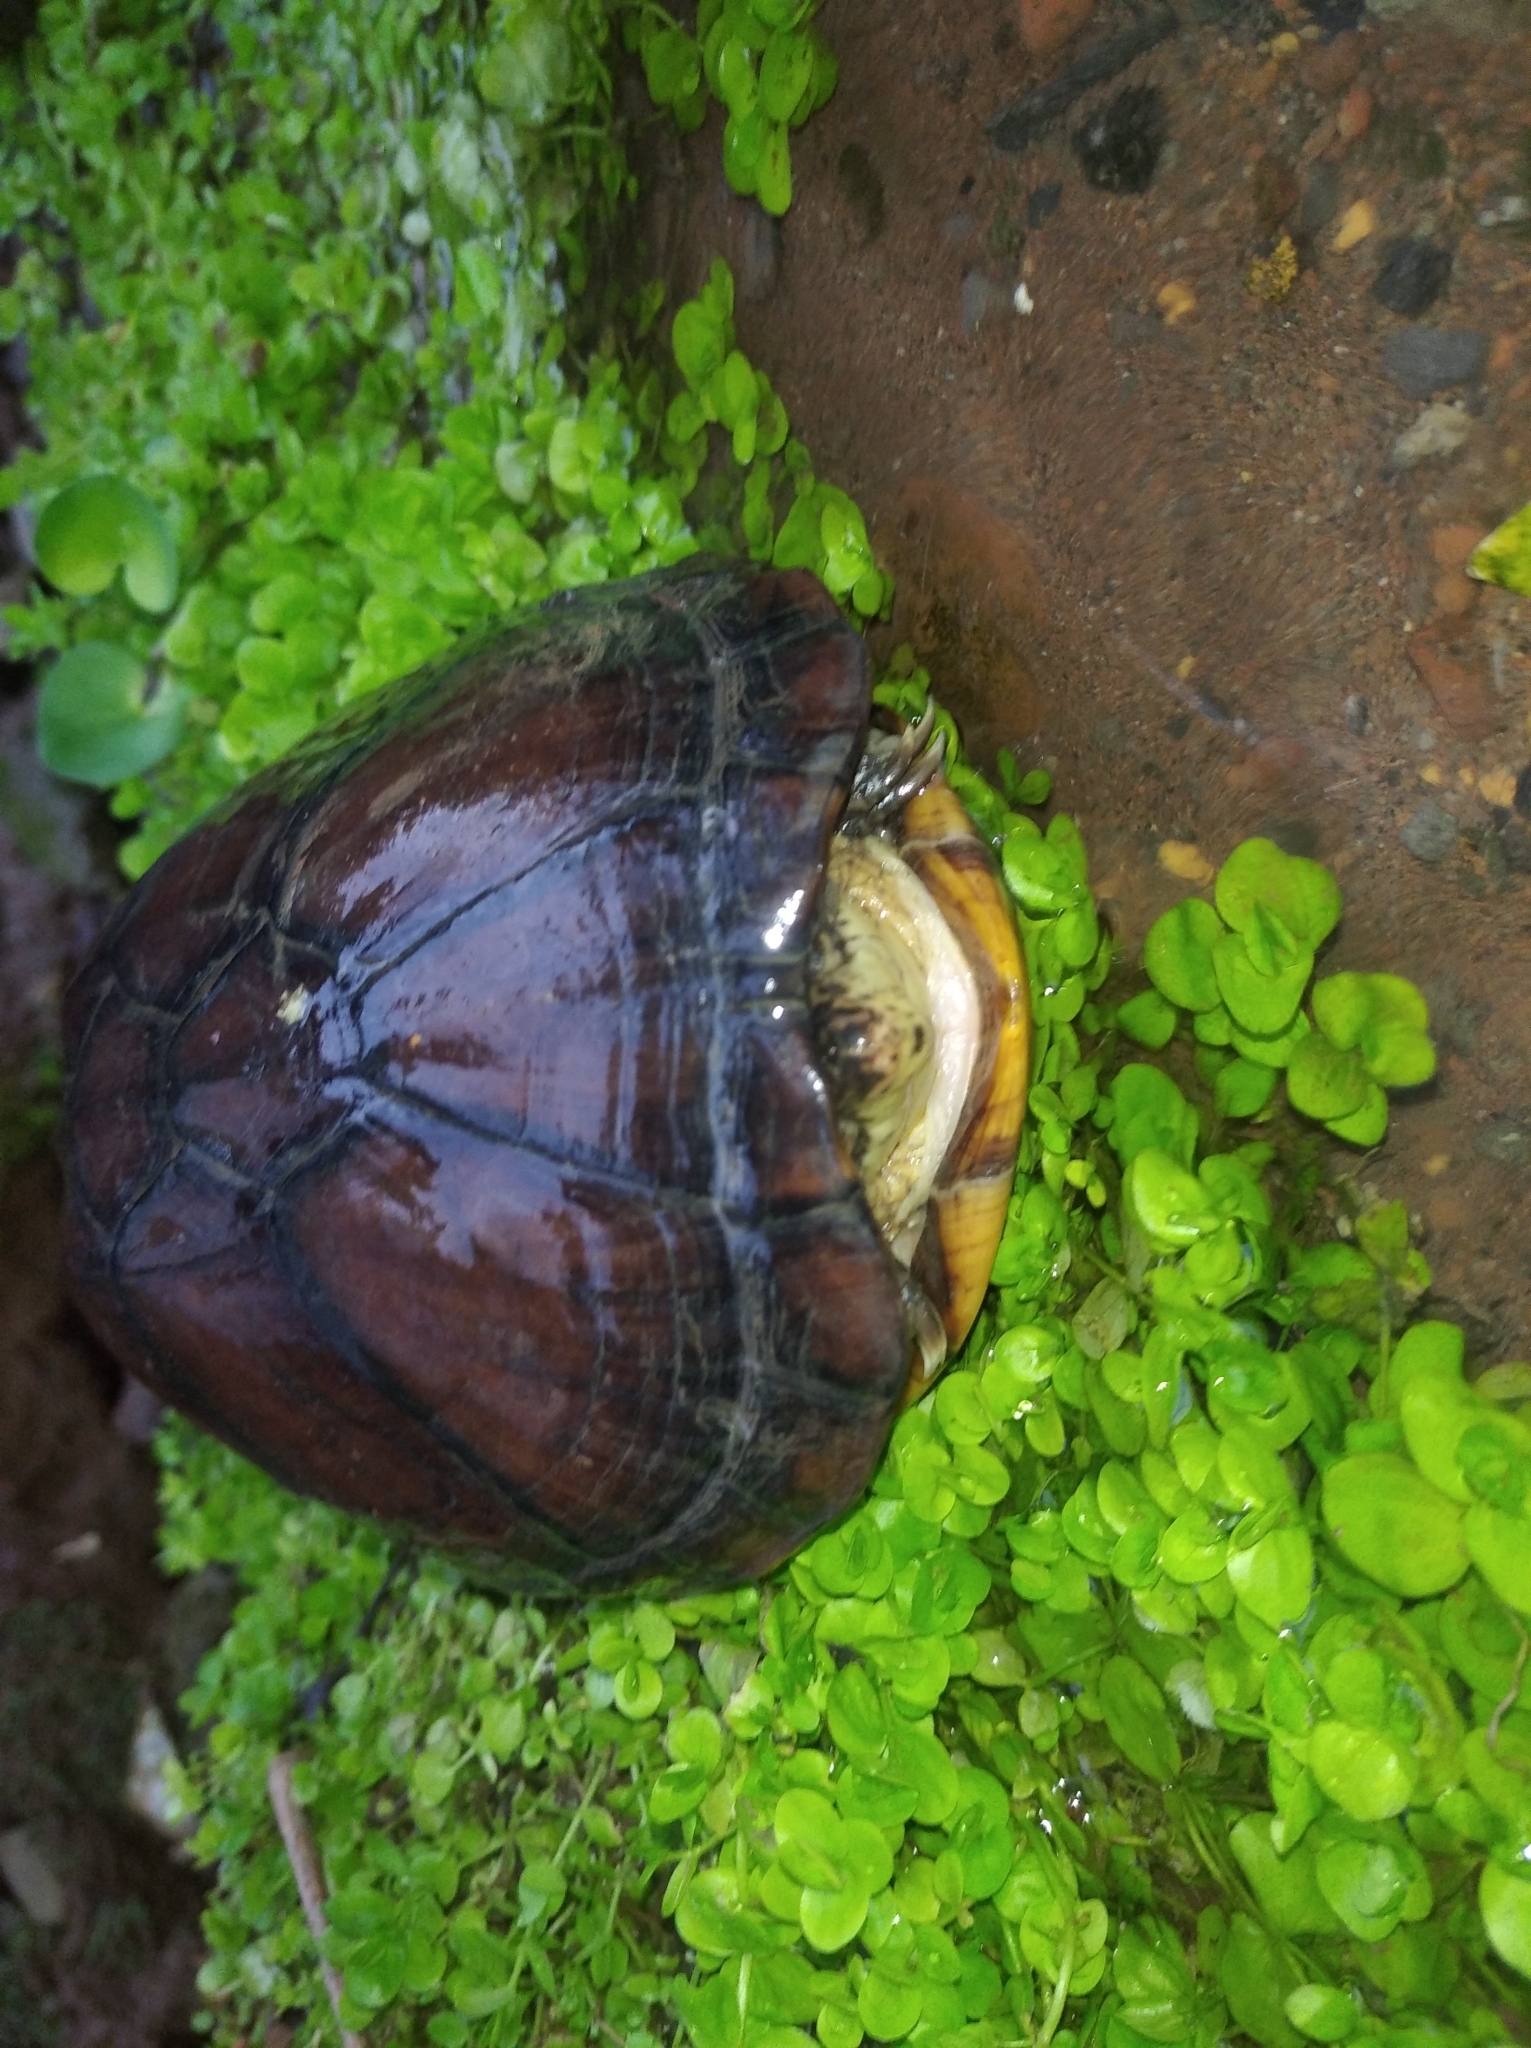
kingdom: Animalia
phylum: Chordata
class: Testudines
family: Kinosternidae
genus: Kinosternon
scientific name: Kinosternon leucostomum
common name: White-lipped mud turtle
